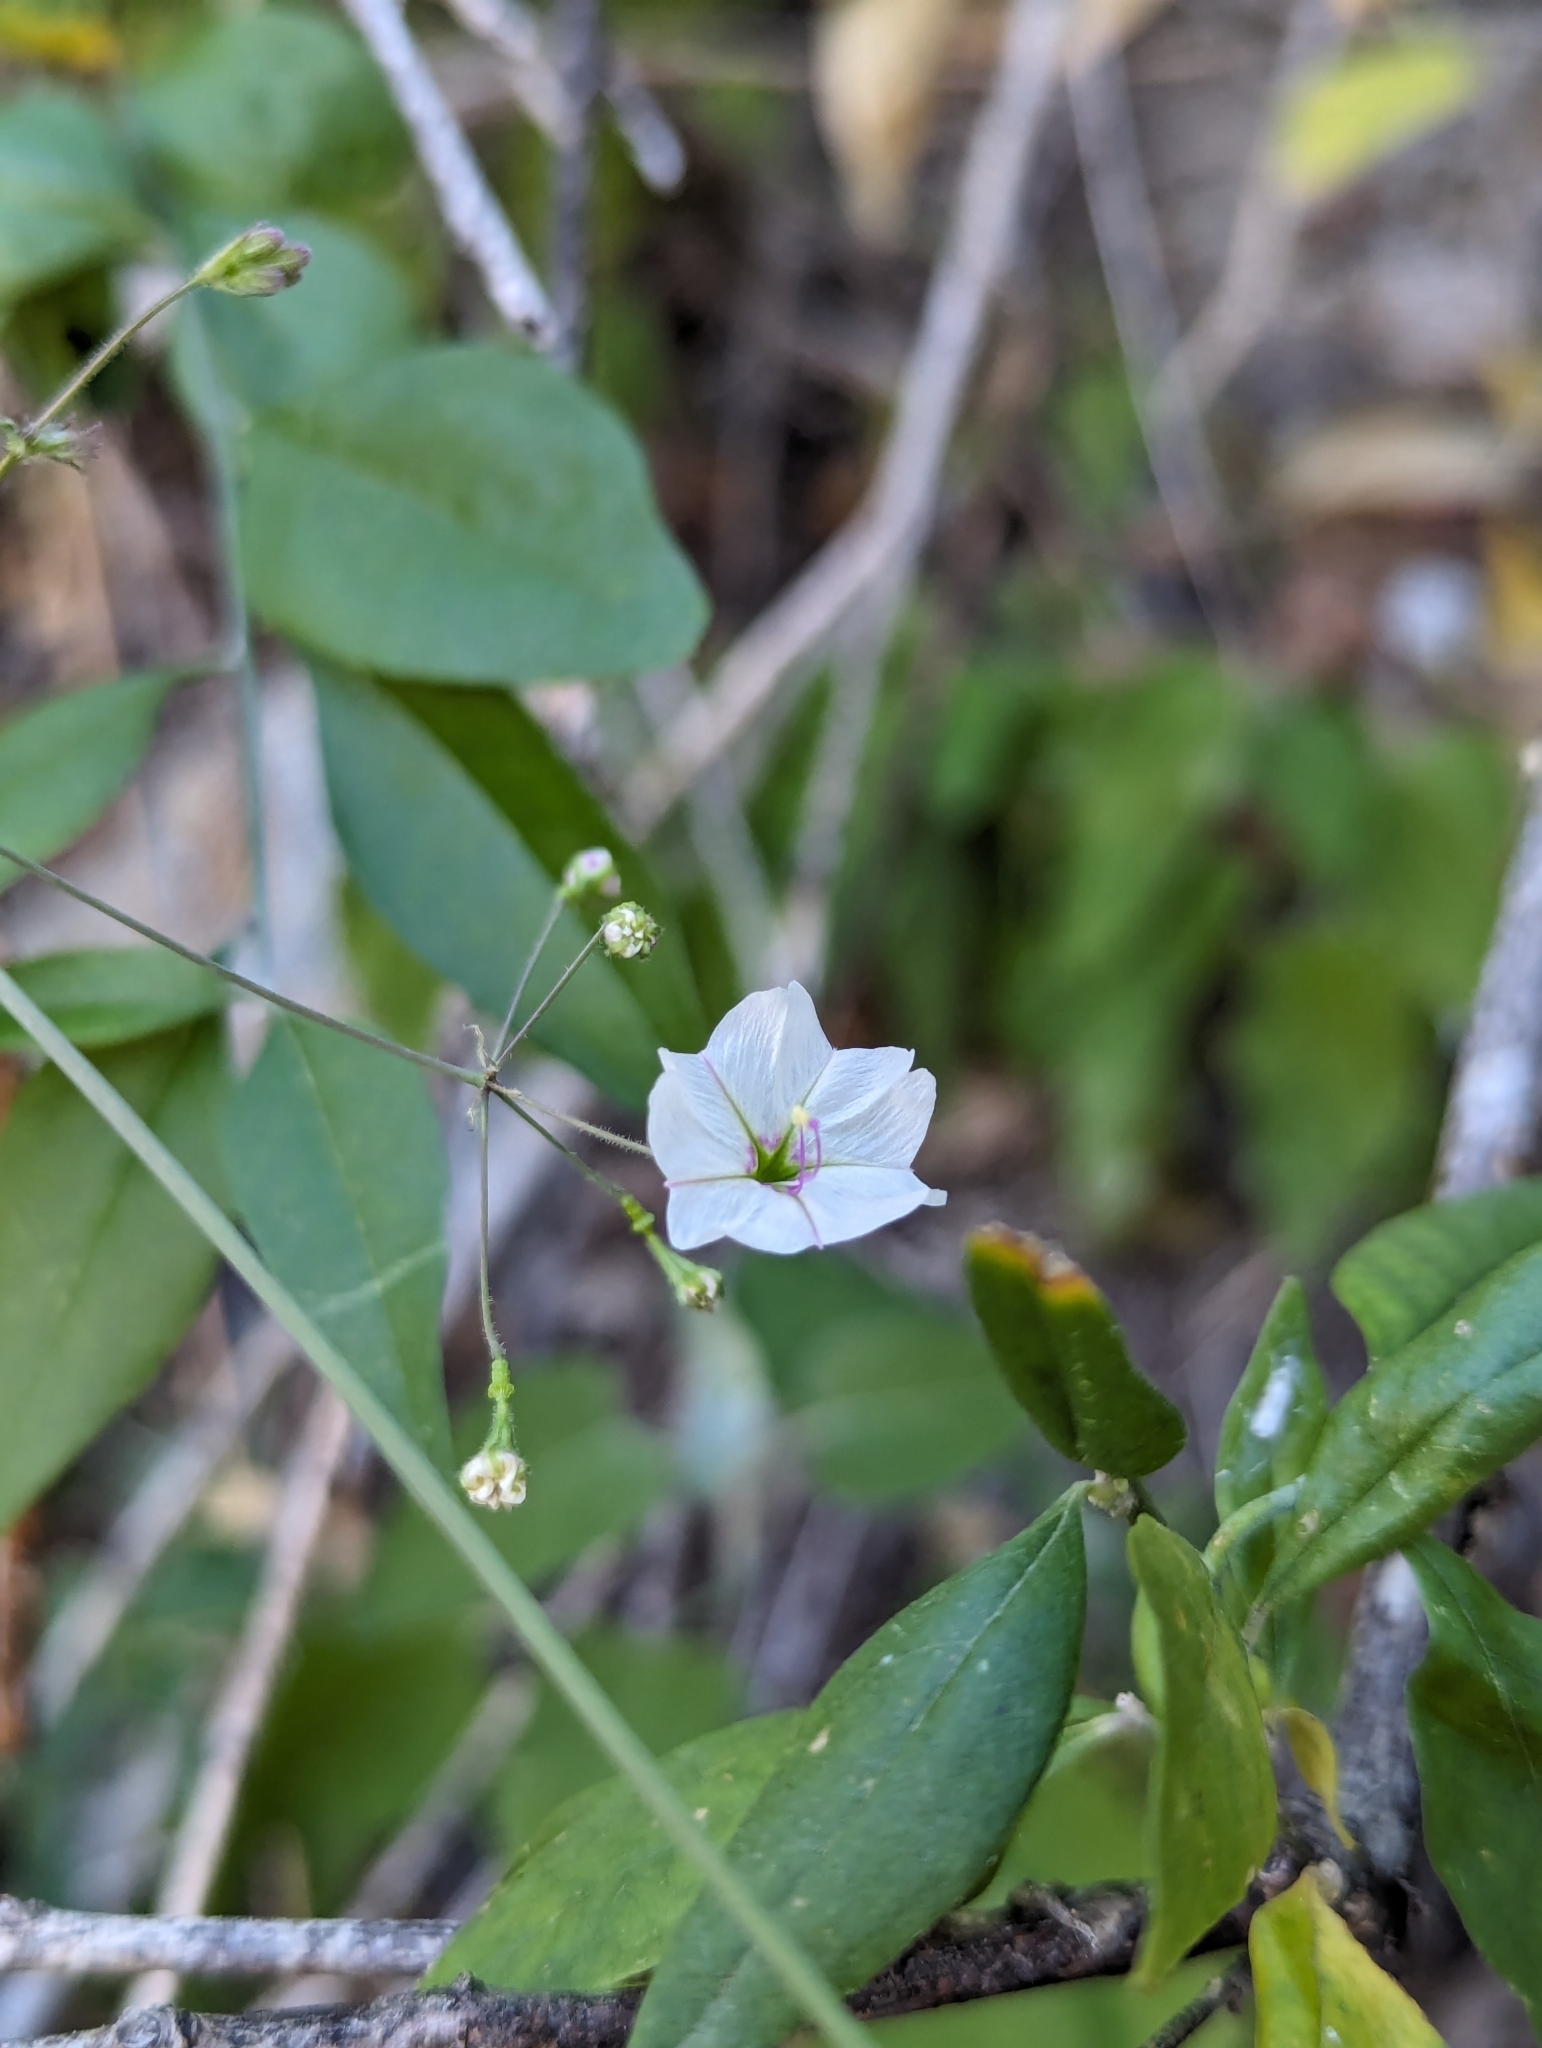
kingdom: Plantae
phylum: Tracheophyta
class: Magnoliopsida
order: Caryophyllales
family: Nyctaginaceae
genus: Commicarpus
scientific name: Commicarpus brandegeei
